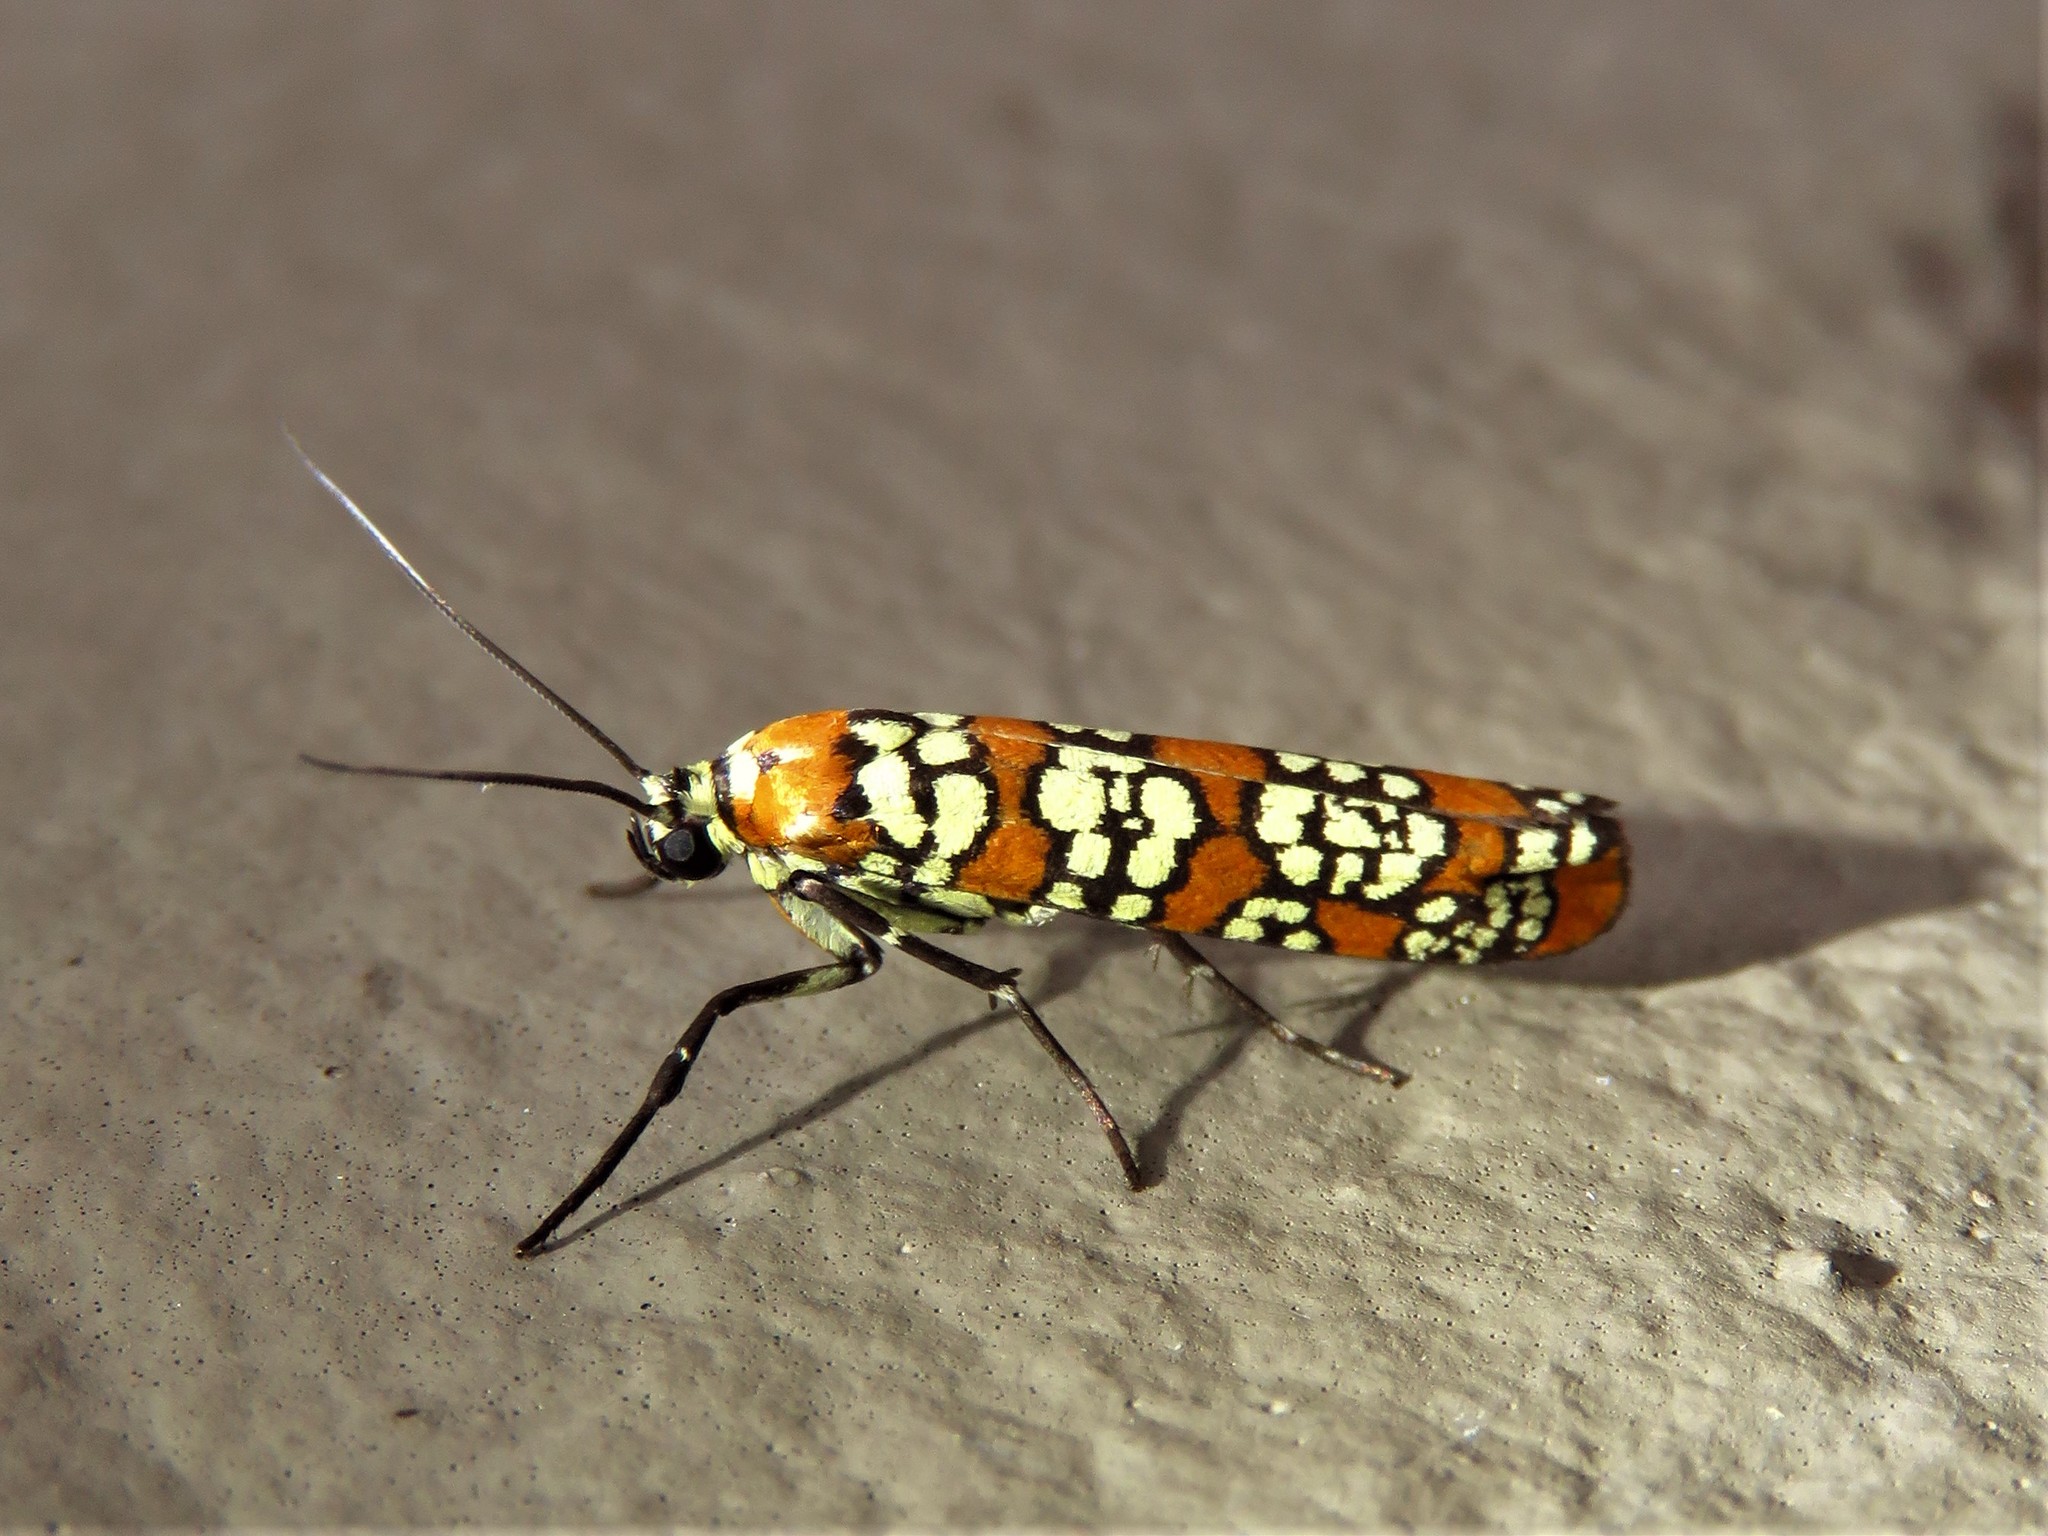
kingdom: Animalia
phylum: Arthropoda
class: Insecta
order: Lepidoptera
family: Attevidae
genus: Atteva
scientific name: Atteva punctella
